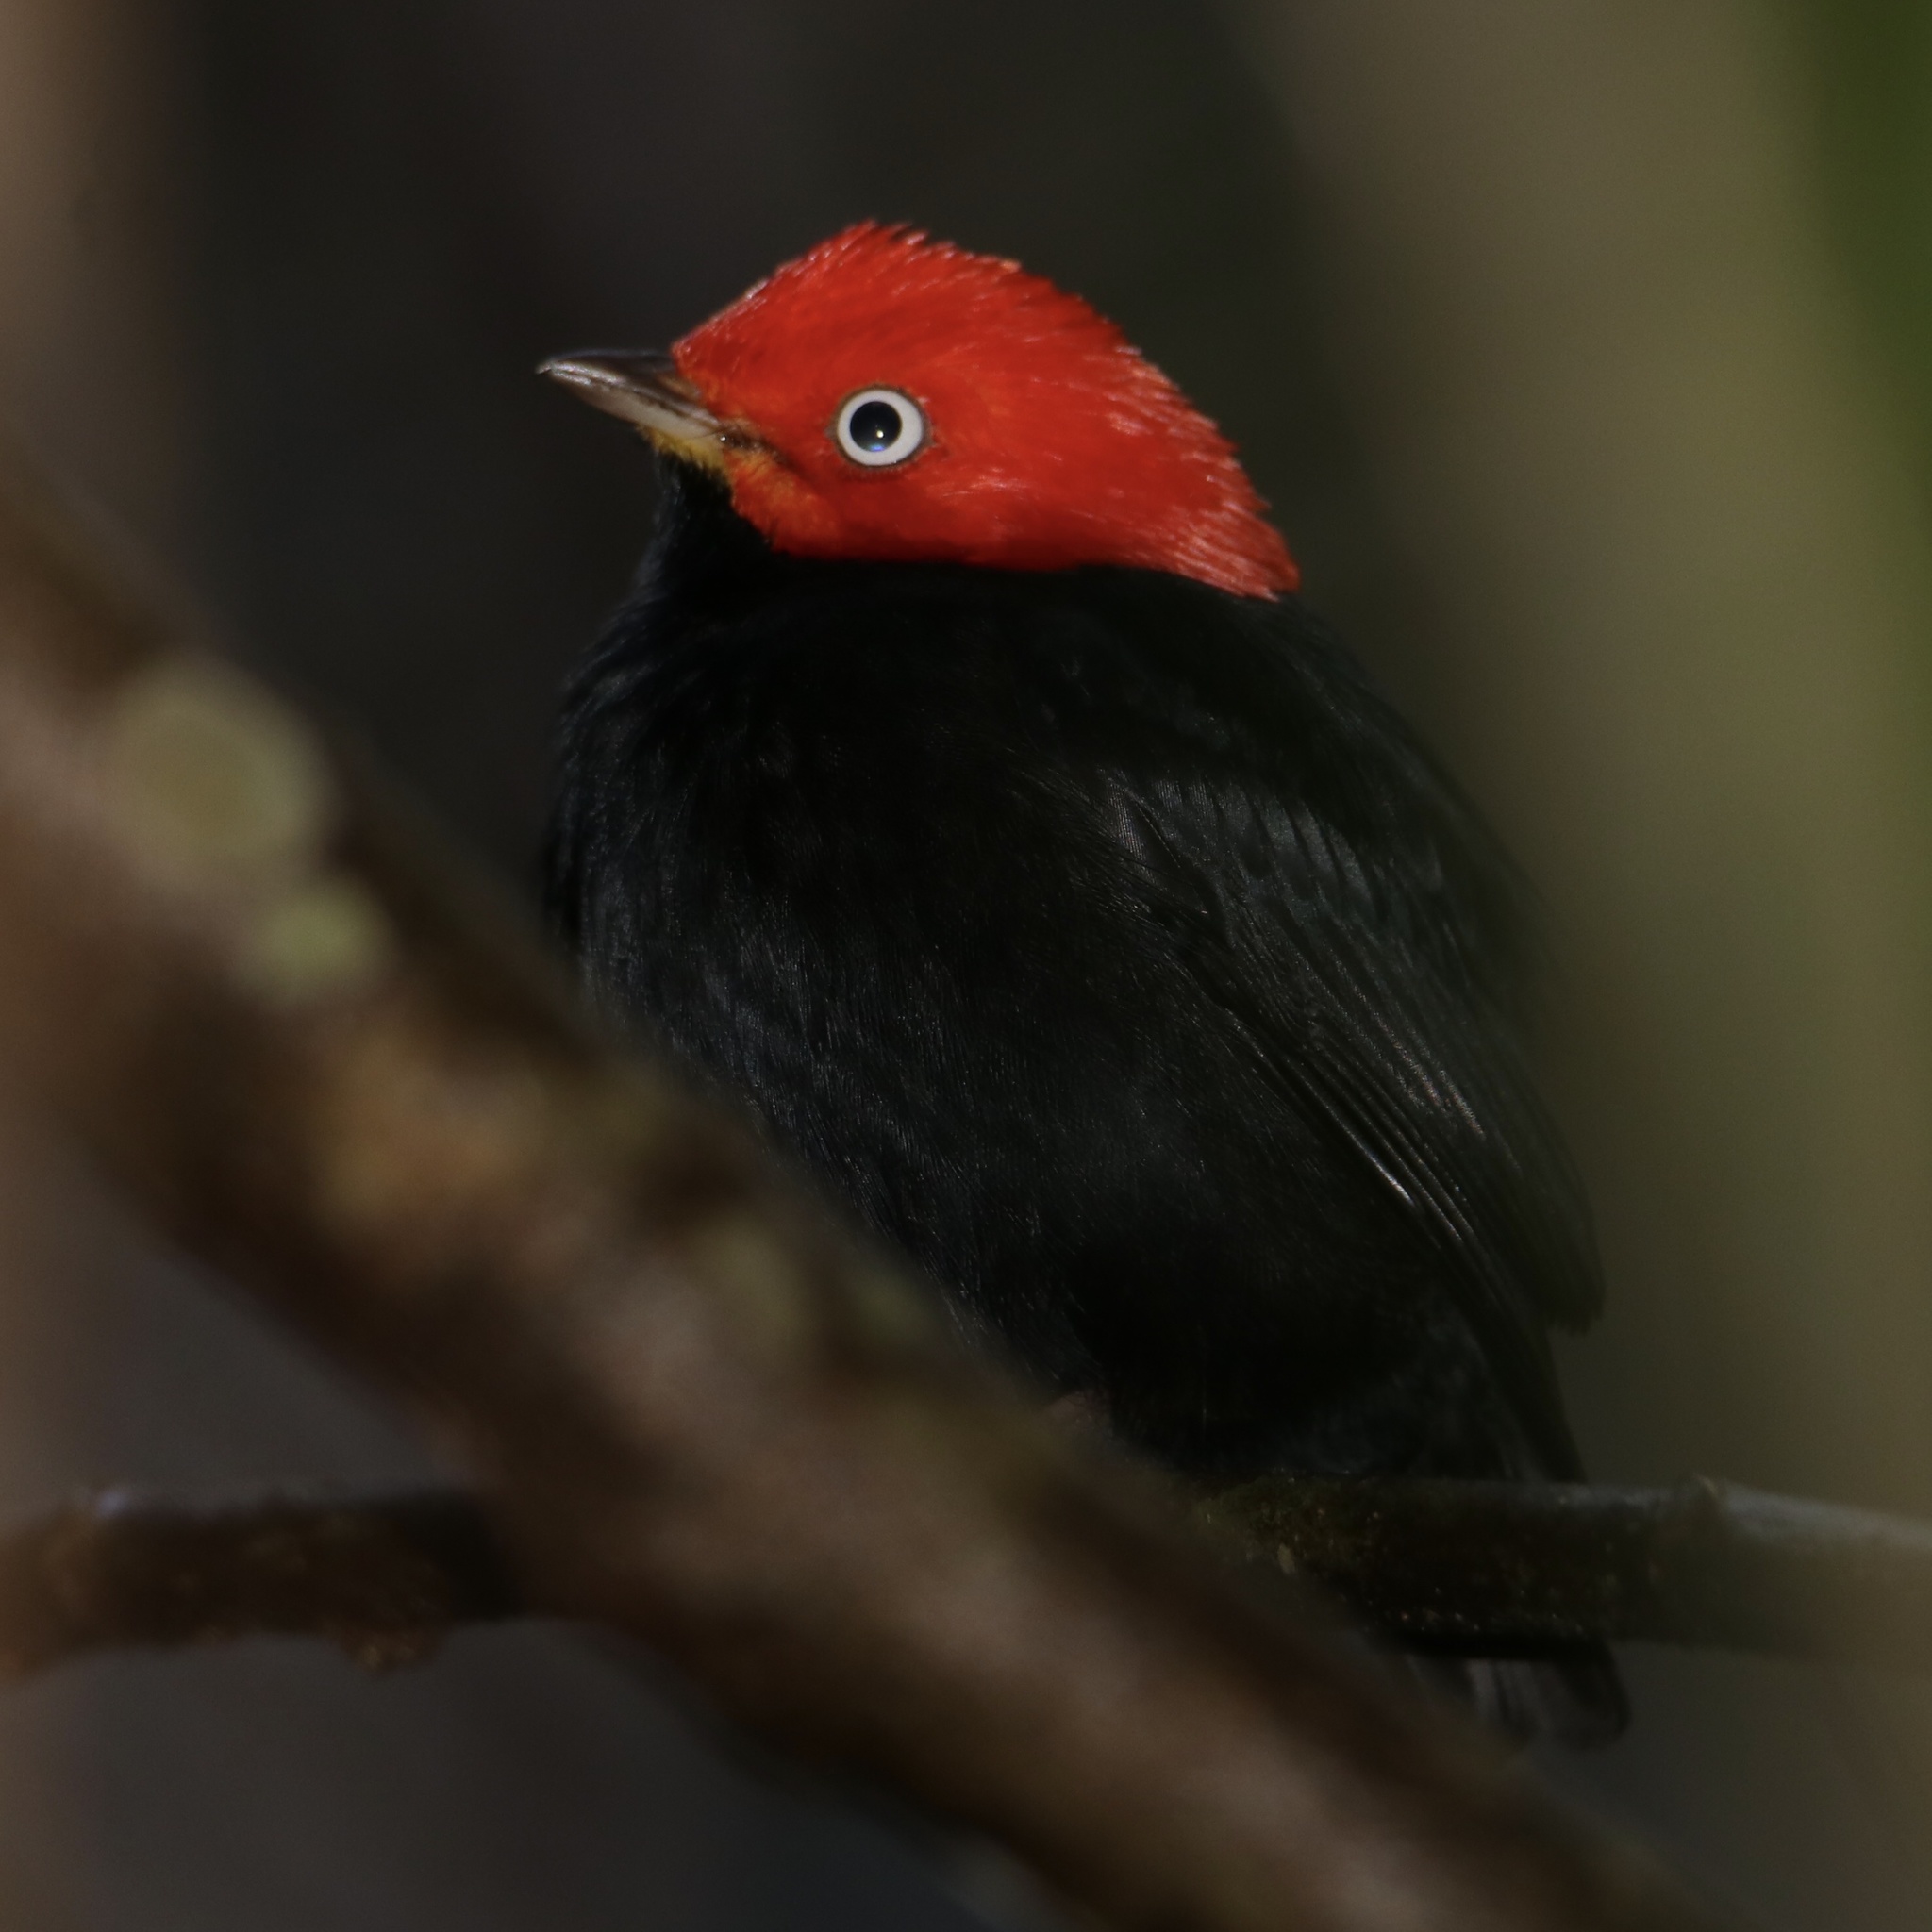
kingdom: Animalia
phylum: Chordata
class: Aves
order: Passeriformes
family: Pipridae
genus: Pipra
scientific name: Pipra mentalis
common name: Red-capped manakin
